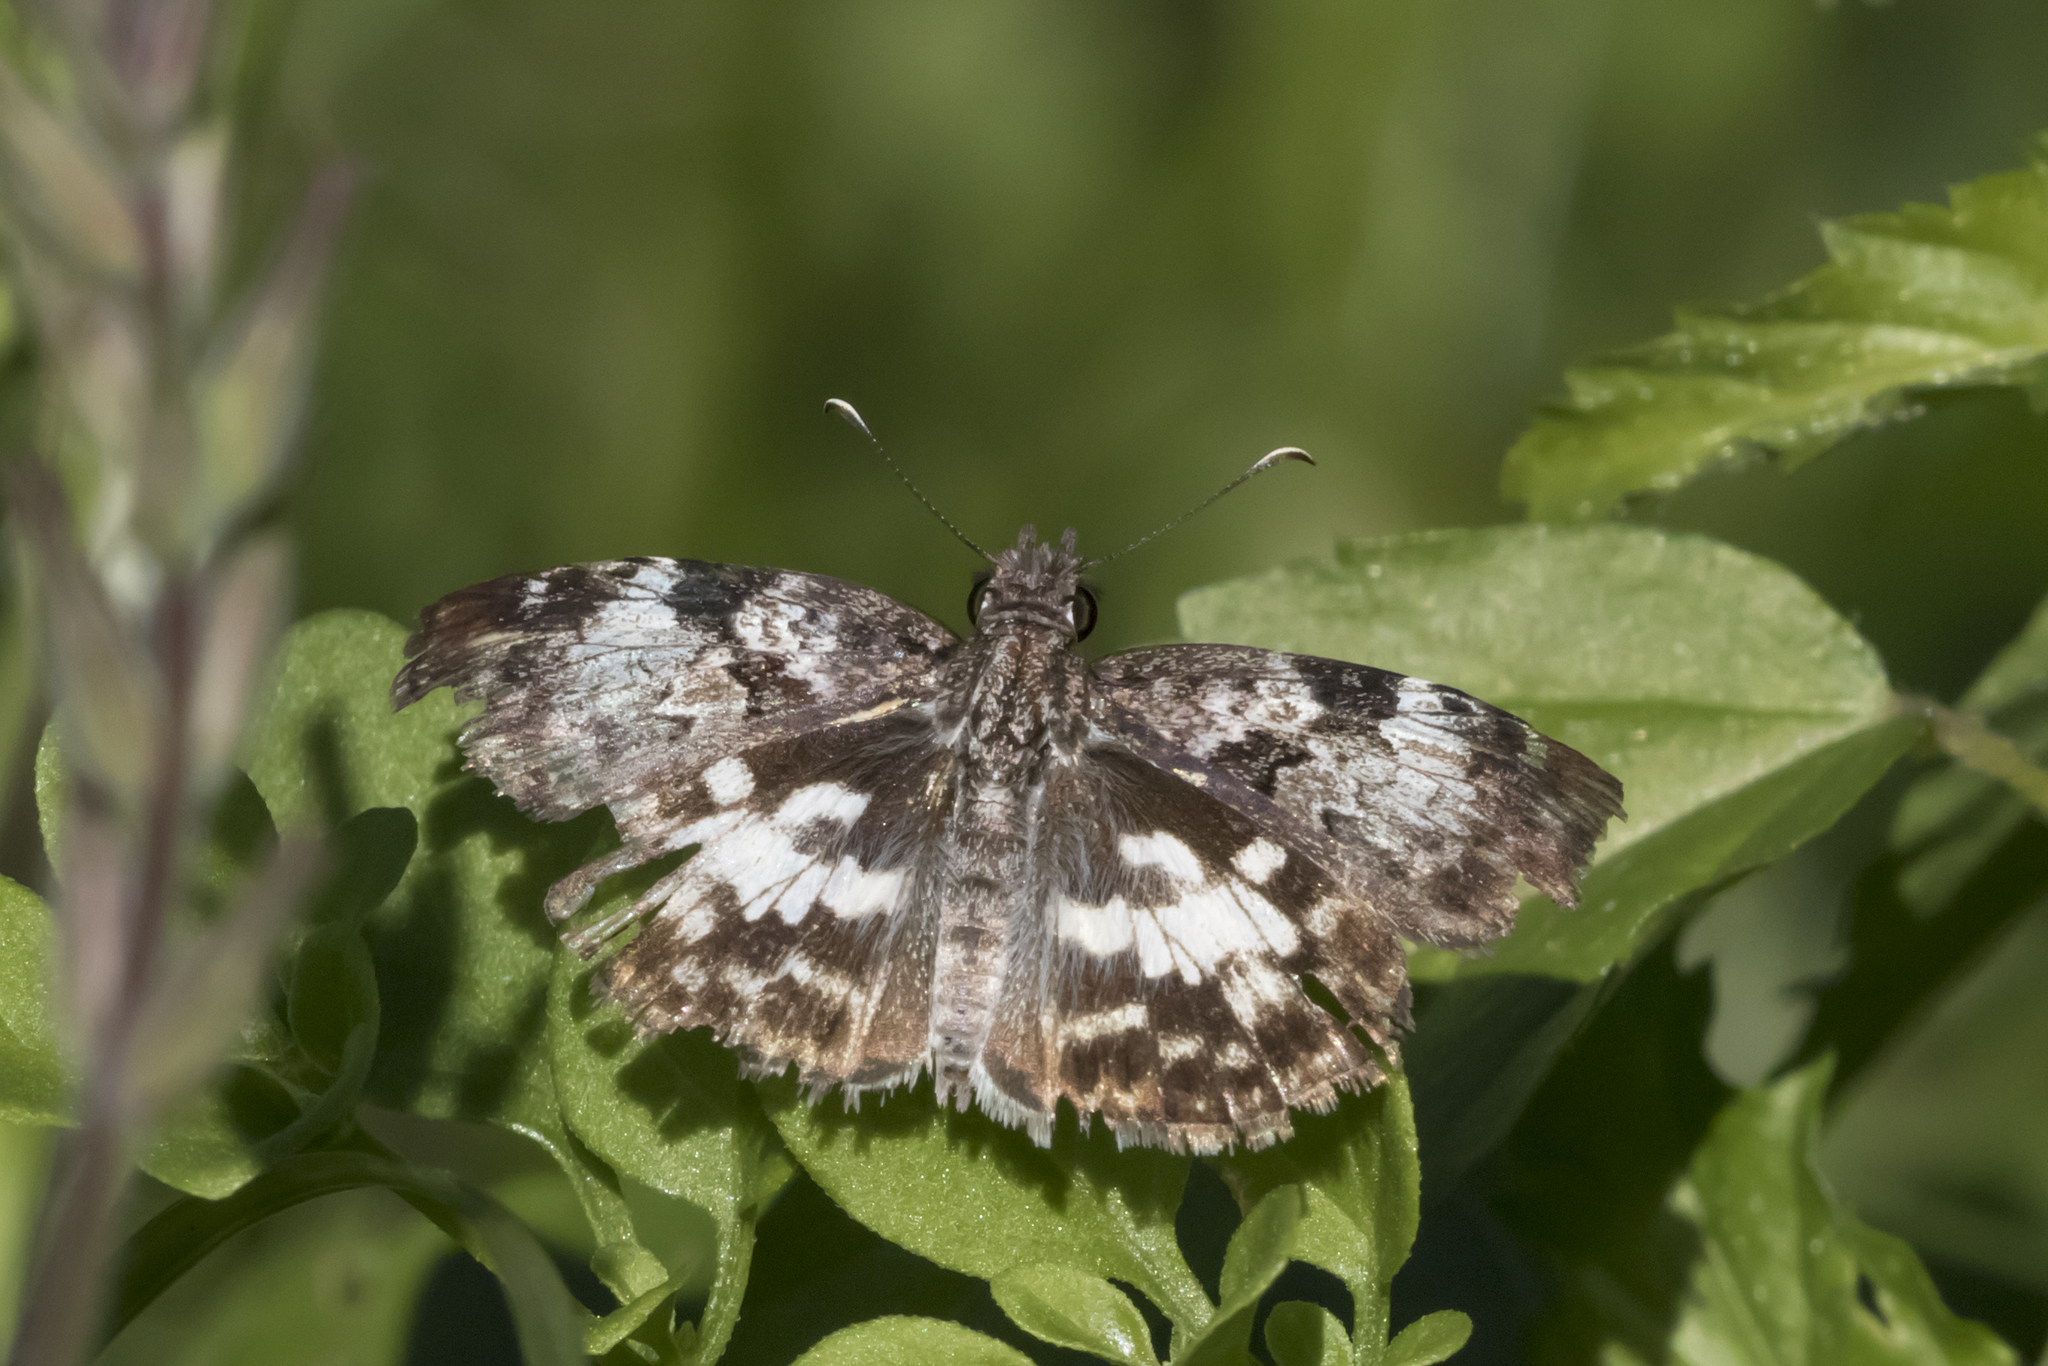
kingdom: Animalia
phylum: Arthropoda
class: Insecta
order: Lepidoptera
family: Hesperiidae
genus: Chiomara
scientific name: Chiomara asychis
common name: White-patterned skipper
